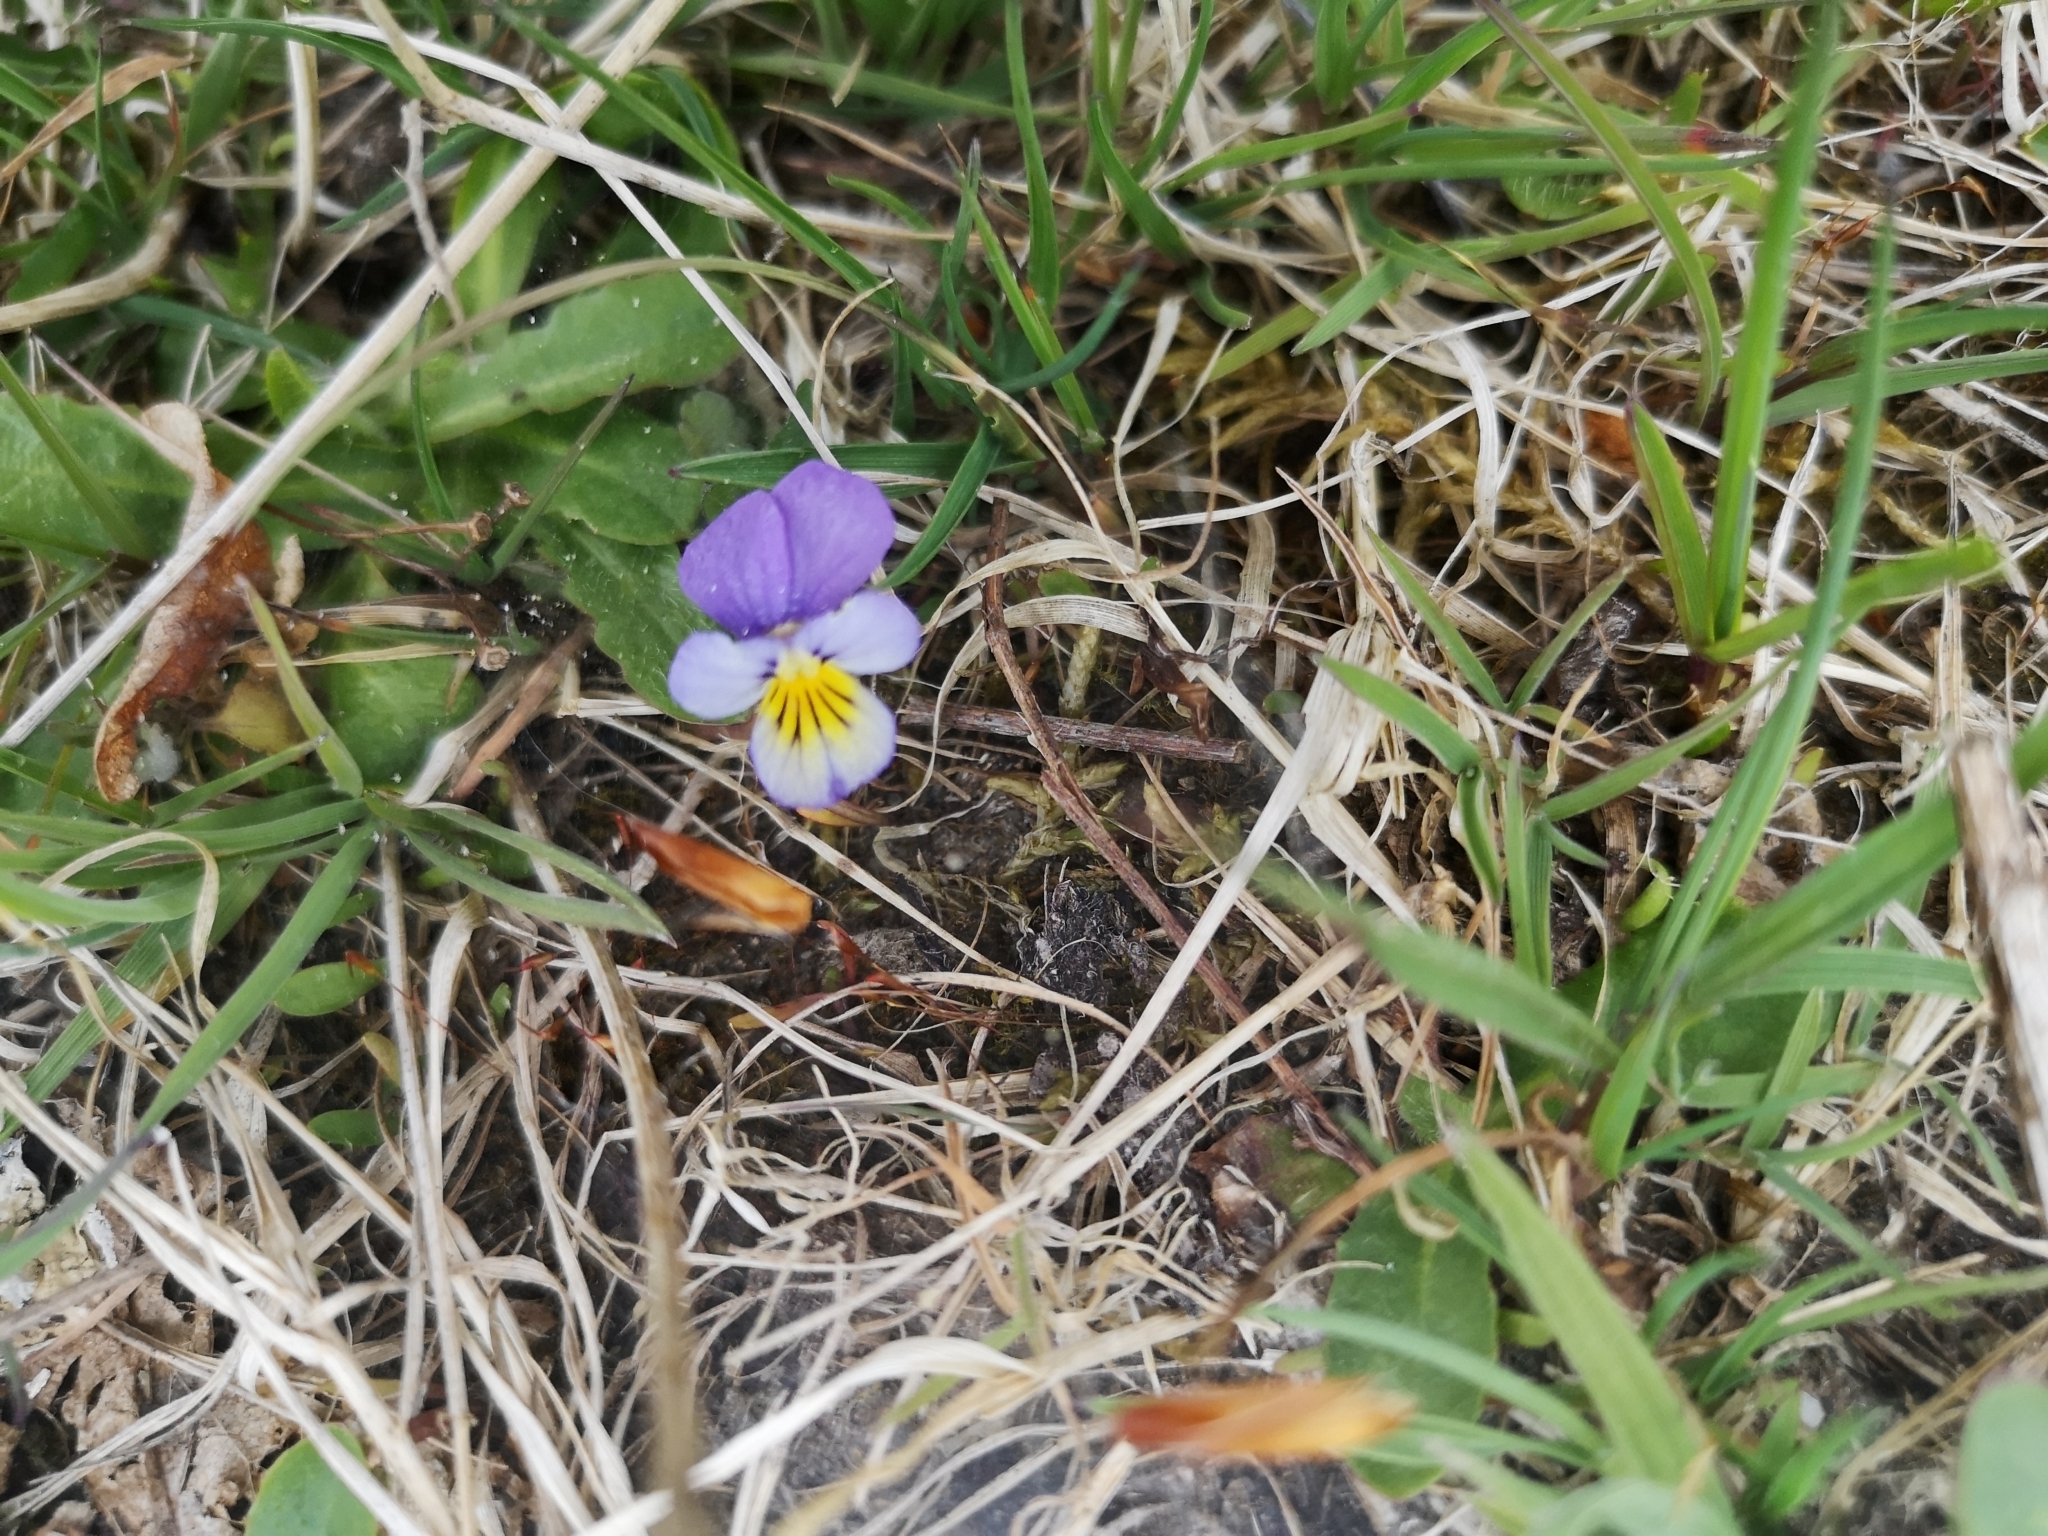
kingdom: Plantae
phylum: Tracheophyta
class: Magnoliopsida
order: Malpighiales
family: Violaceae
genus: Viola
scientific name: Viola tricolor
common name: Pansy
